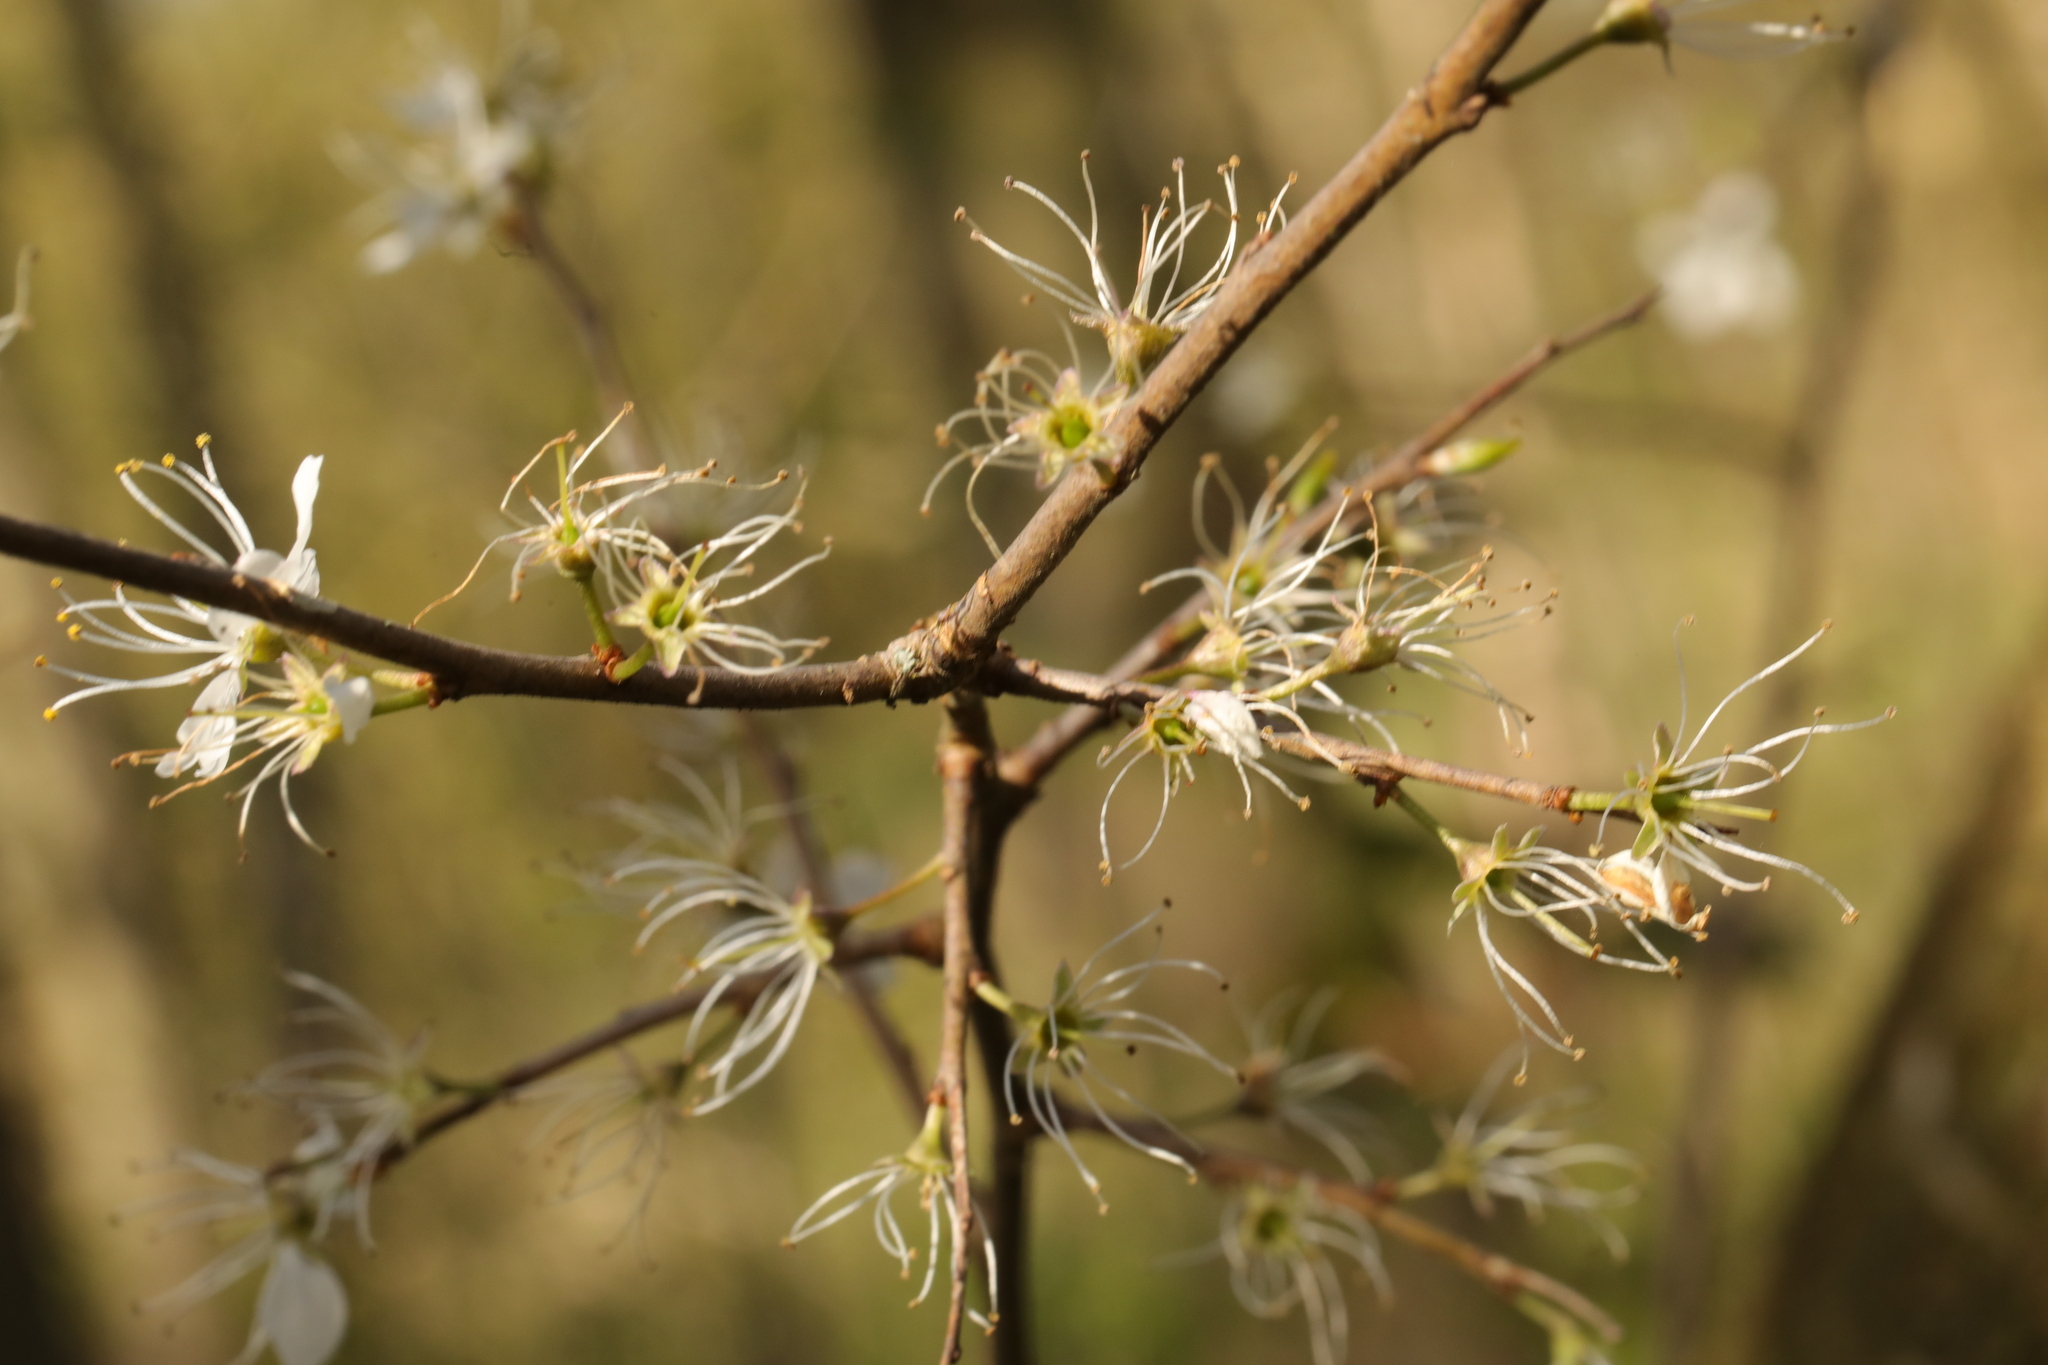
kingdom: Plantae
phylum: Tracheophyta
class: Magnoliopsida
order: Rosales
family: Rosaceae
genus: Prunus
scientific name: Prunus spinosa
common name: Blackthorn
